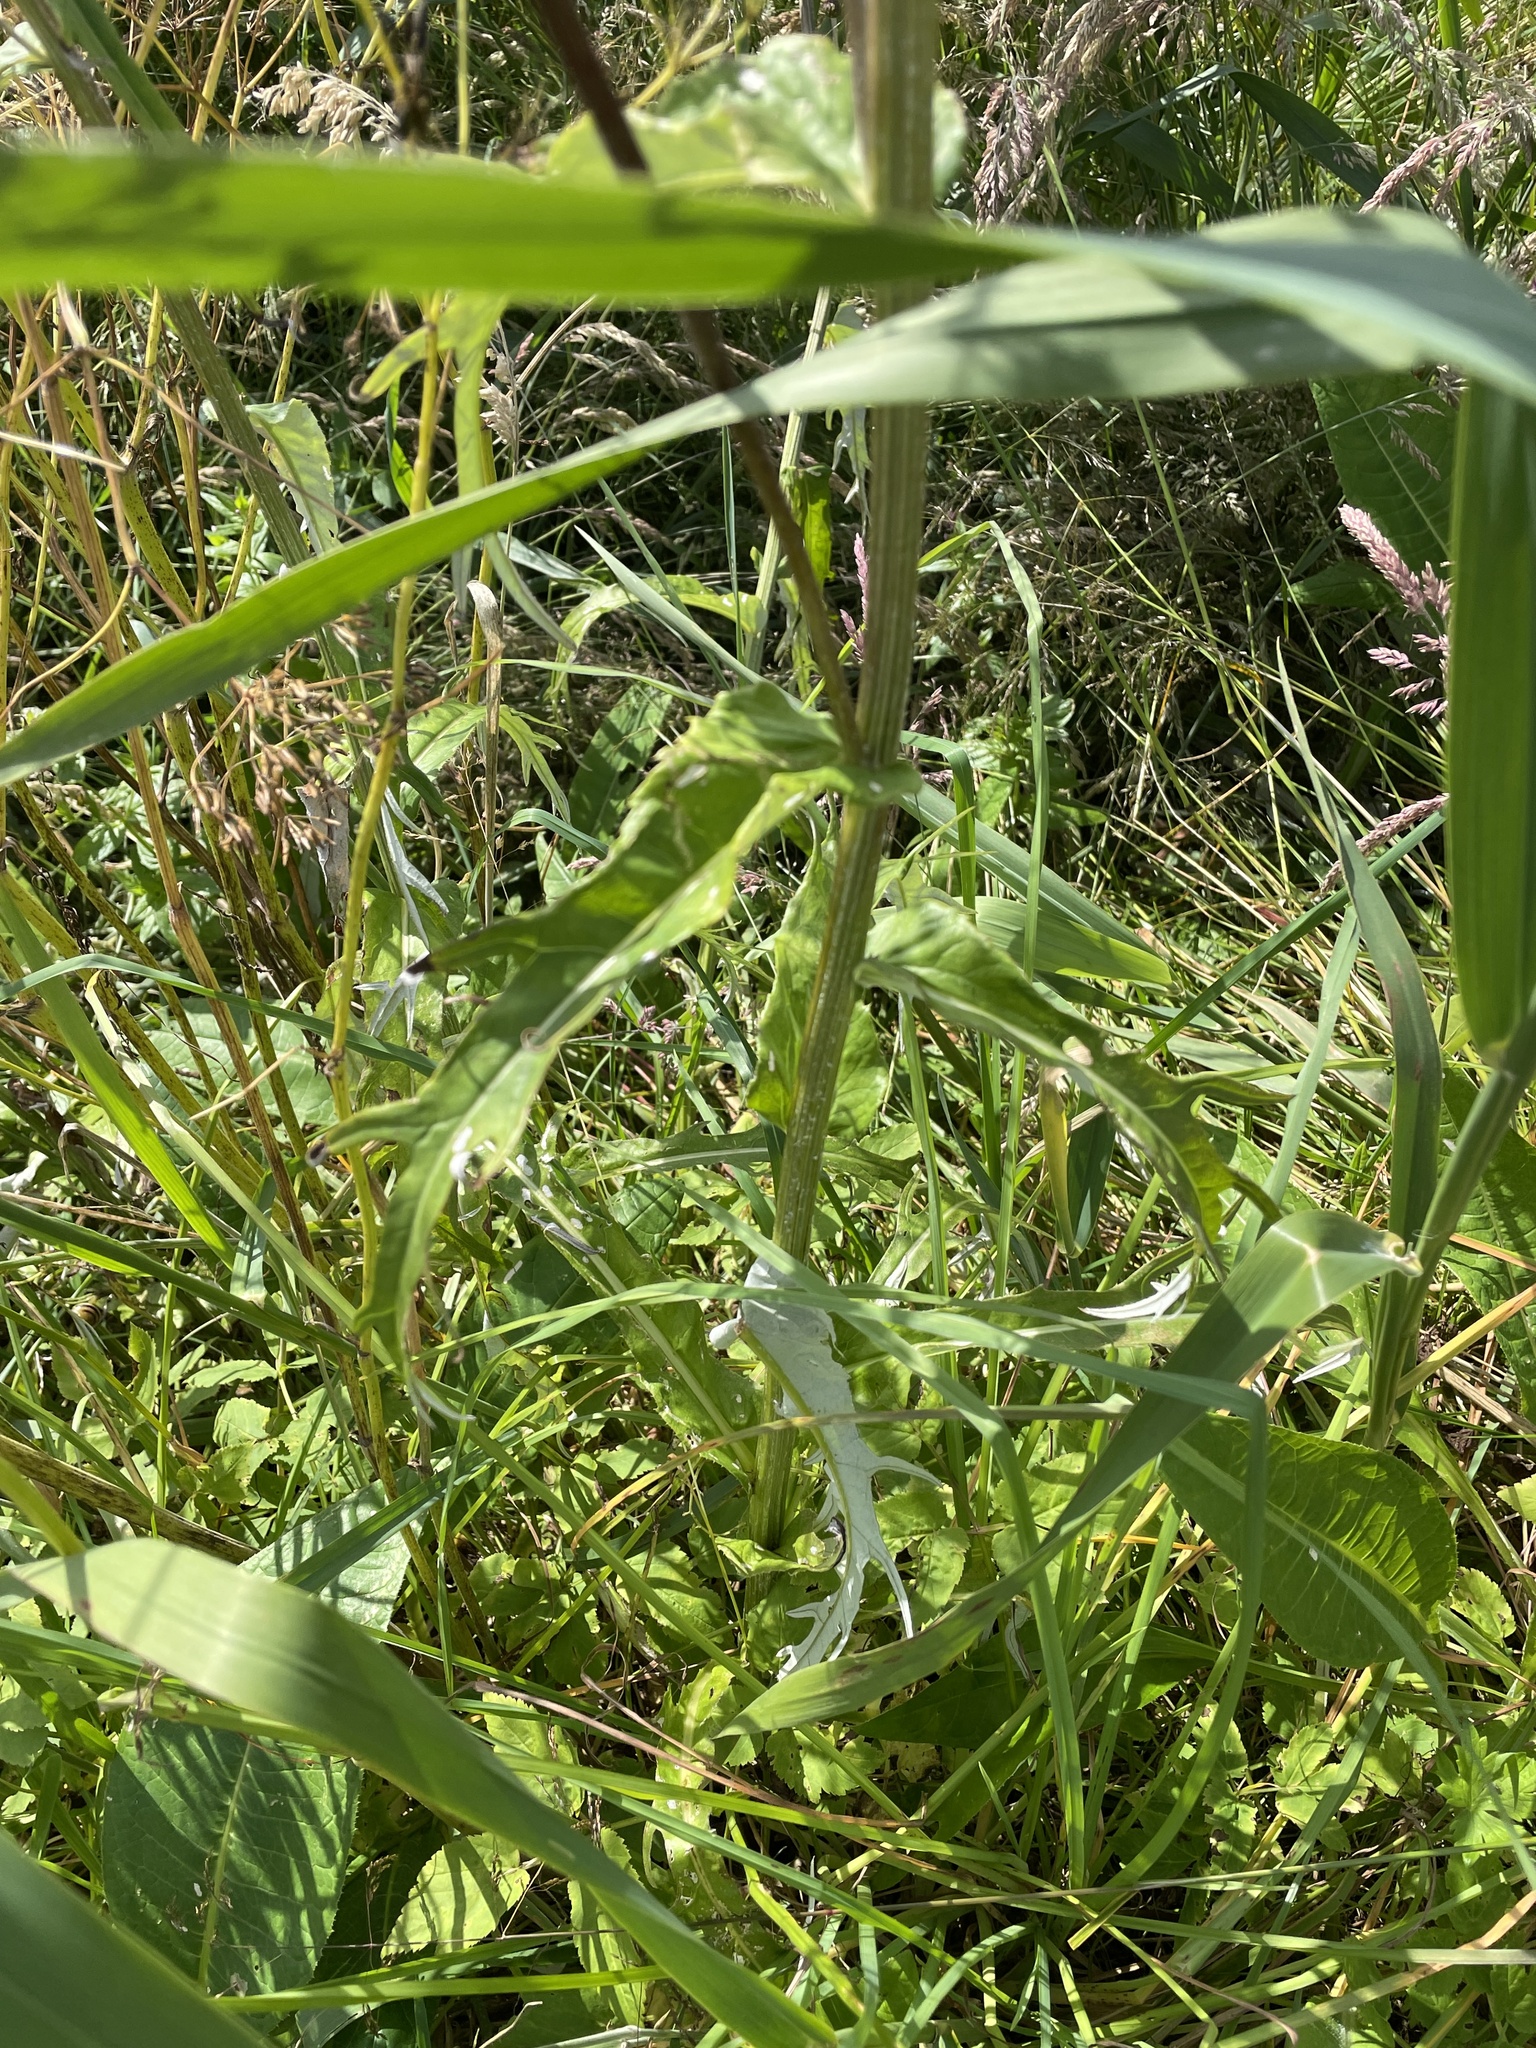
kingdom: Plantae
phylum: Tracheophyta
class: Magnoliopsida
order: Asterales
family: Asteraceae
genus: Cirsium
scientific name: Cirsium heterophyllum
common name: Melancholy thistle
